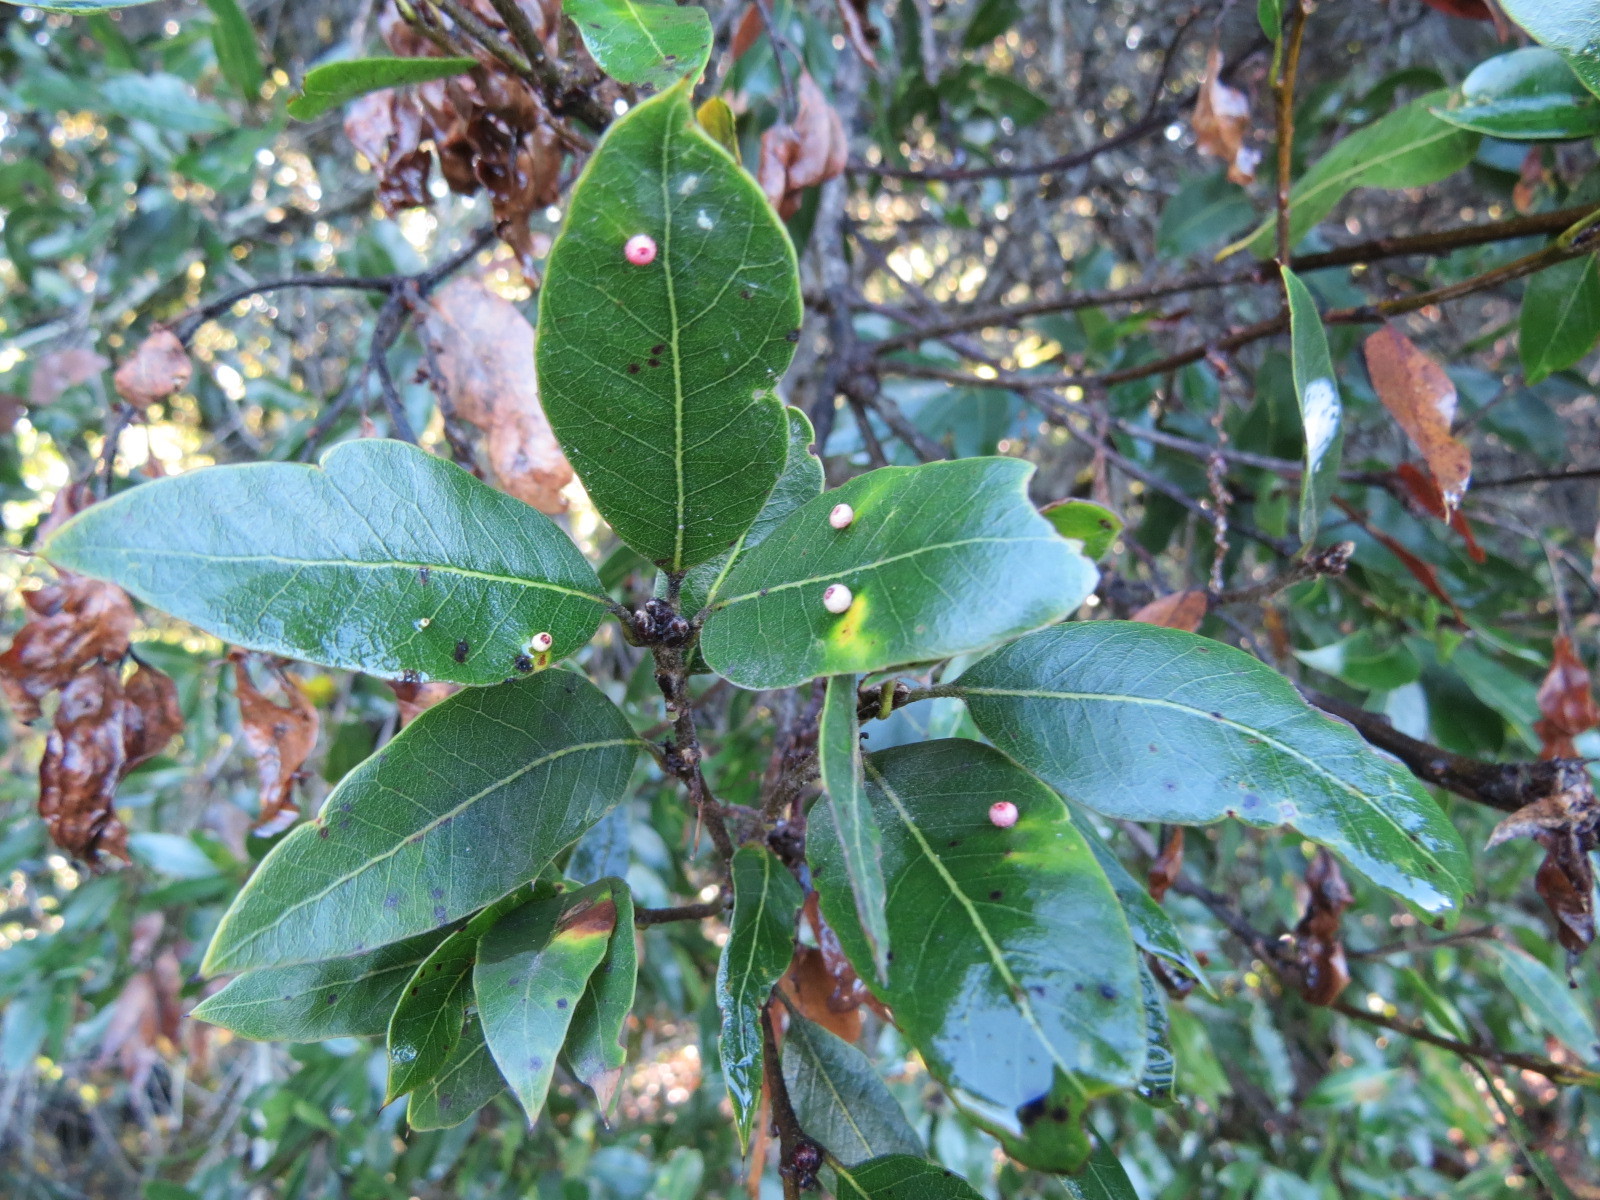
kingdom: Animalia
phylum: Arthropoda
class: Insecta
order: Hymenoptera
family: Cynipidae
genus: Dryocosmus
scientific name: Dryocosmus
